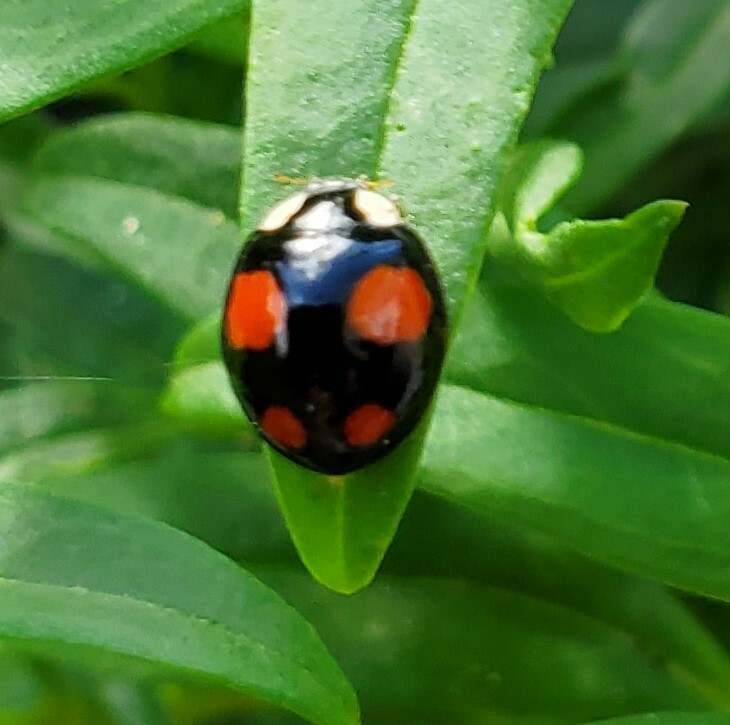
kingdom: Animalia
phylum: Arthropoda
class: Insecta
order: Coleoptera
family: Coccinellidae
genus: Harmonia
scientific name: Harmonia axyridis
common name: Harlequin ladybird
